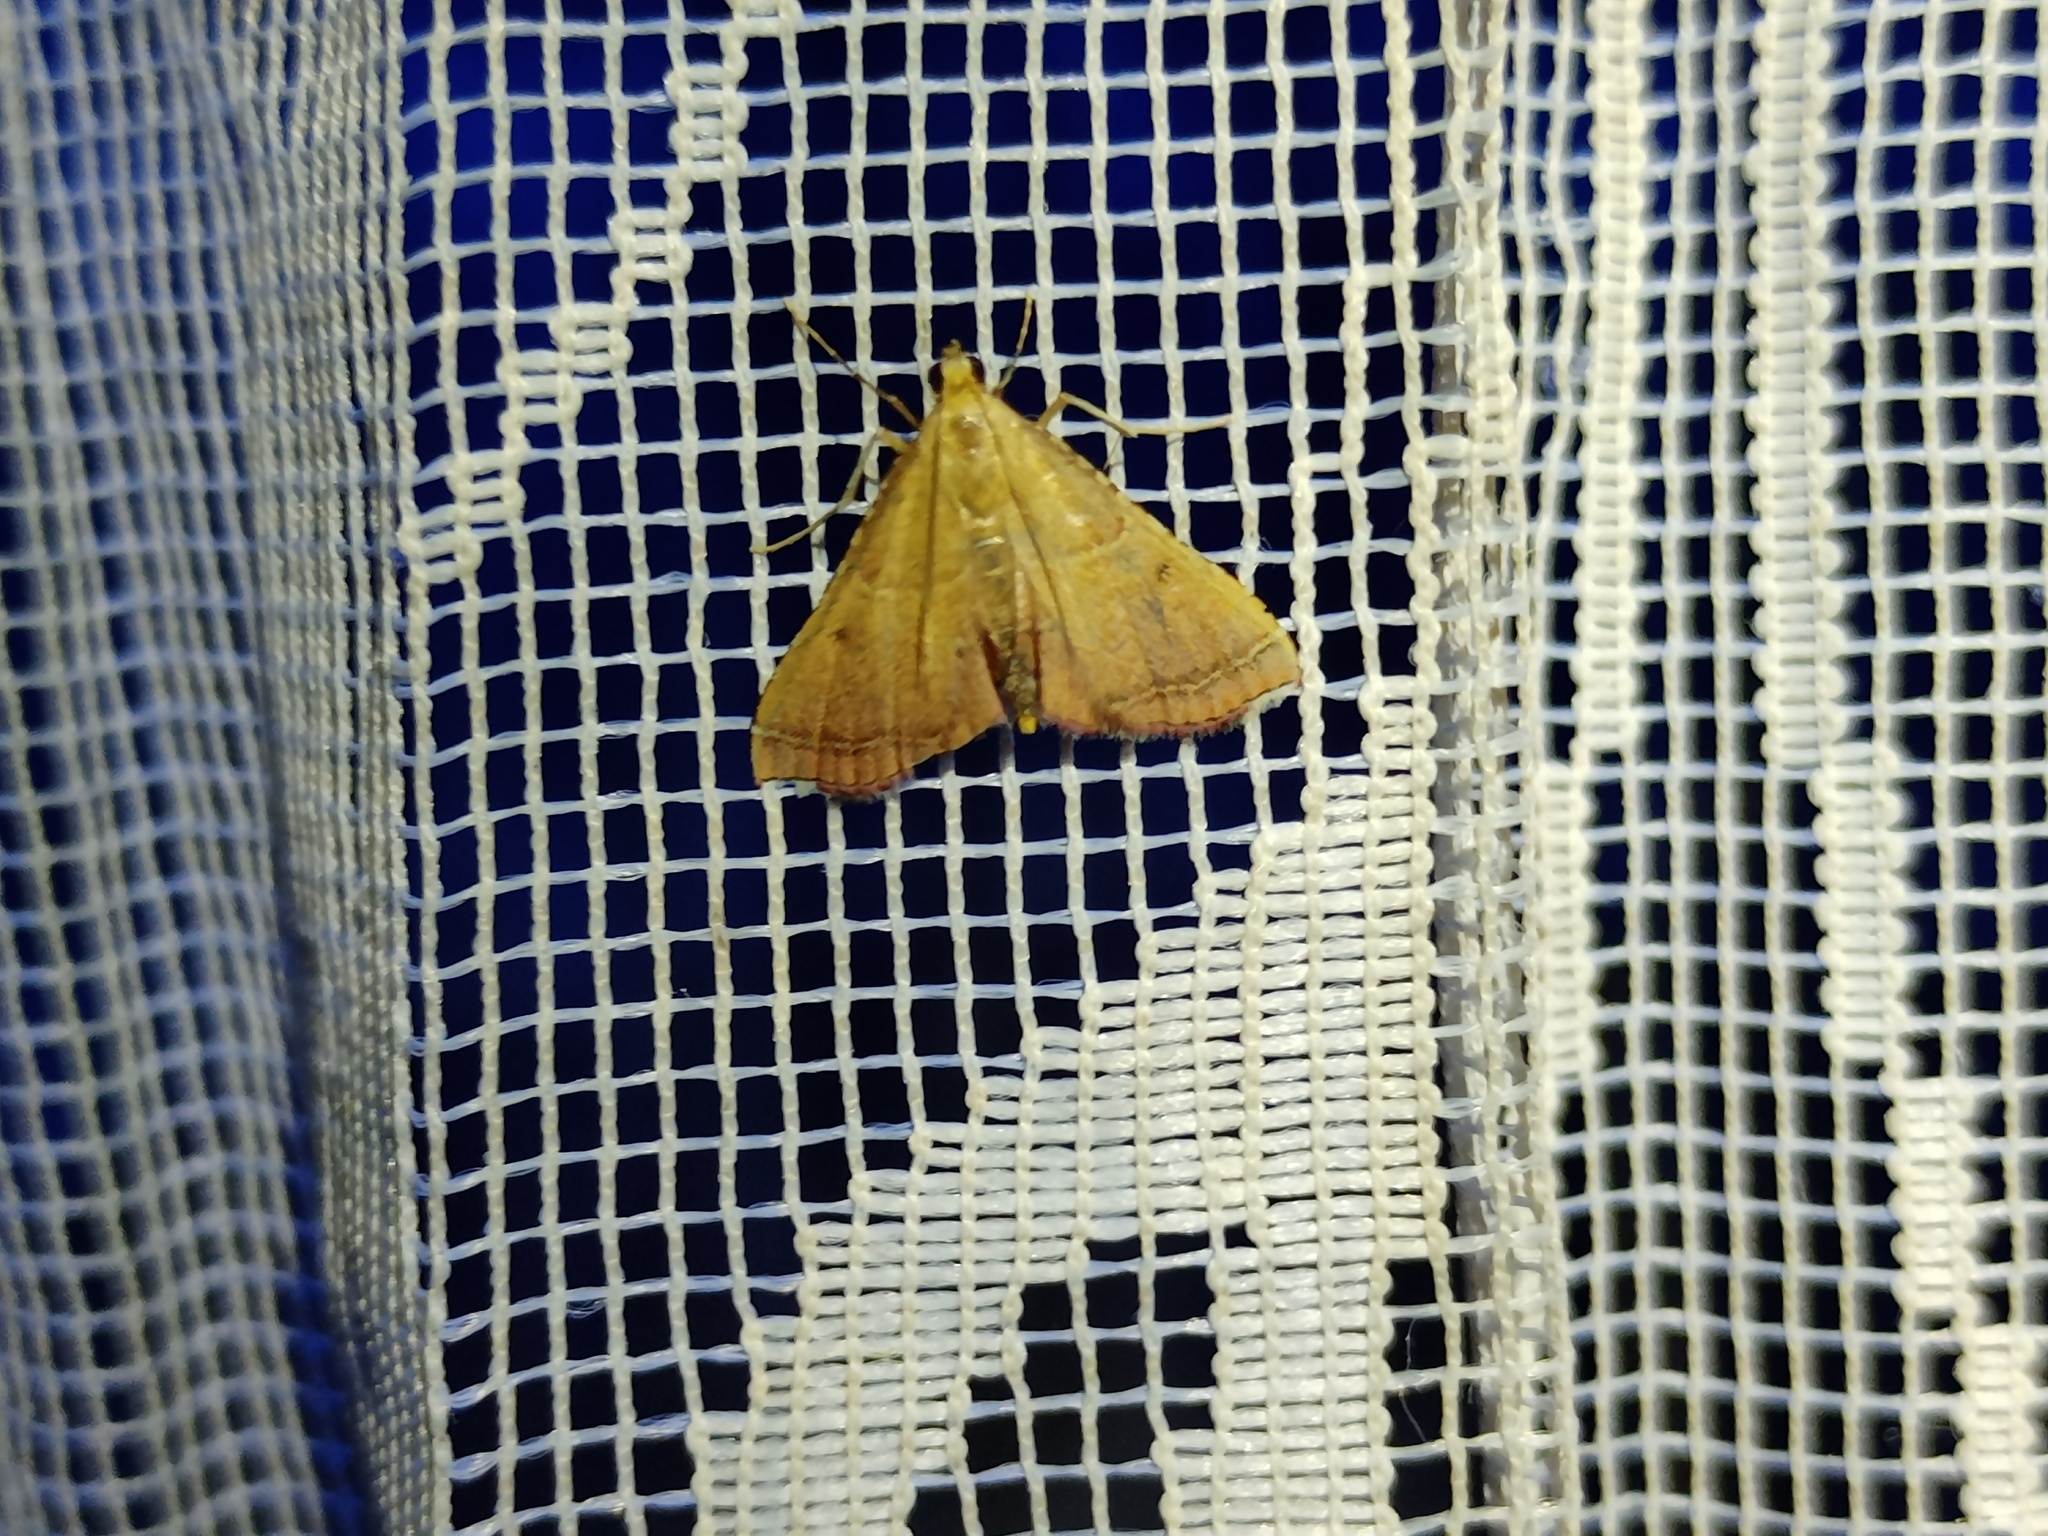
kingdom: Animalia
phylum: Arthropoda
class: Insecta
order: Lepidoptera
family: Pyralidae
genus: Endotricha
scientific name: Endotricha flammealis
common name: Rosy tabby
